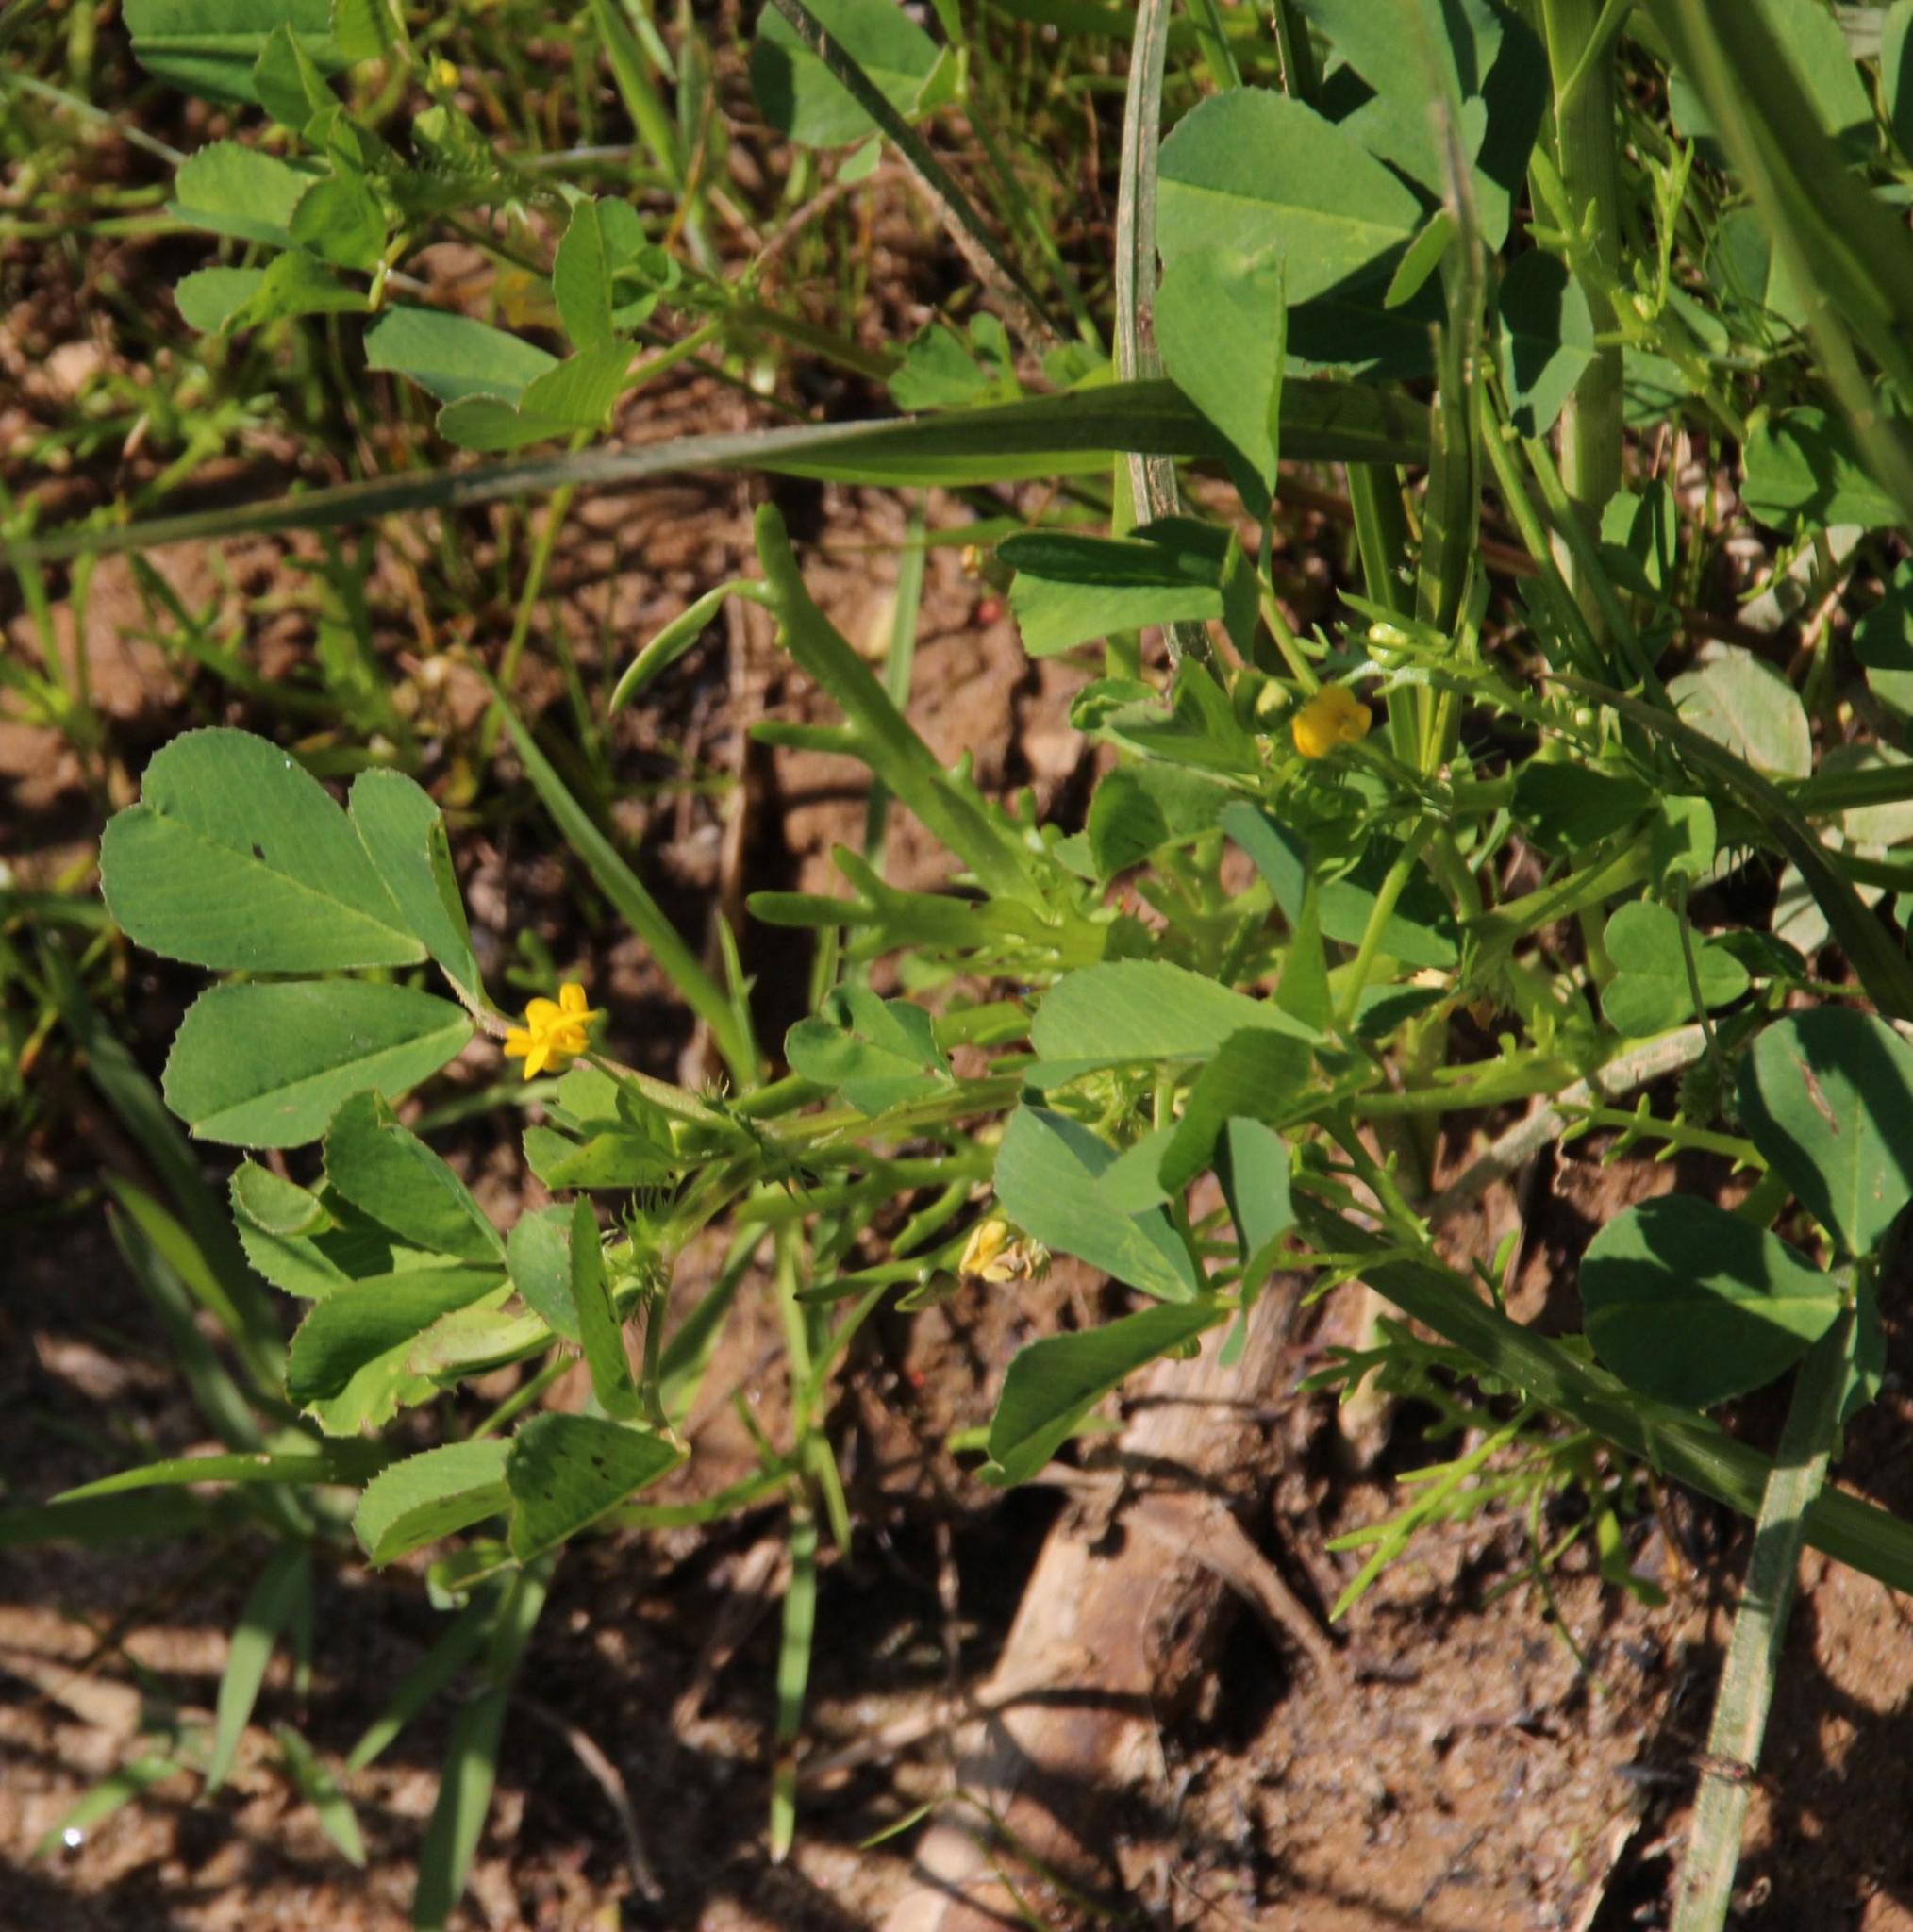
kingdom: Plantae
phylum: Tracheophyta
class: Magnoliopsida
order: Fabales
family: Fabaceae
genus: Medicago
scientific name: Medicago polymorpha
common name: Burclover
